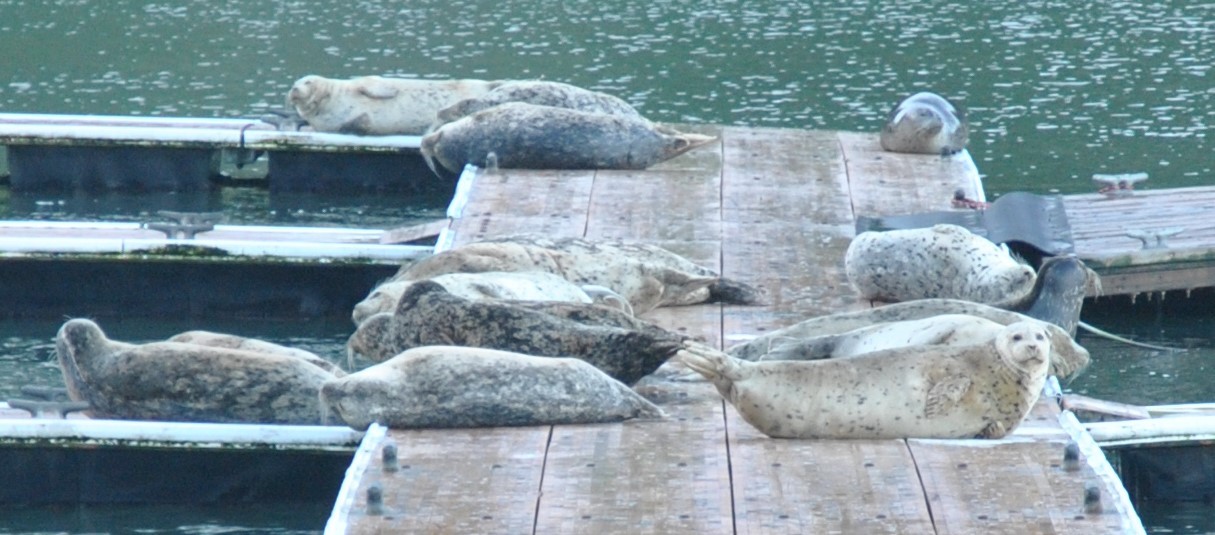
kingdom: Animalia
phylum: Chordata
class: Mammalia
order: Carnivora
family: Phocidae
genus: Phoca
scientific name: Phoca vitulina
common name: Harbor seal
